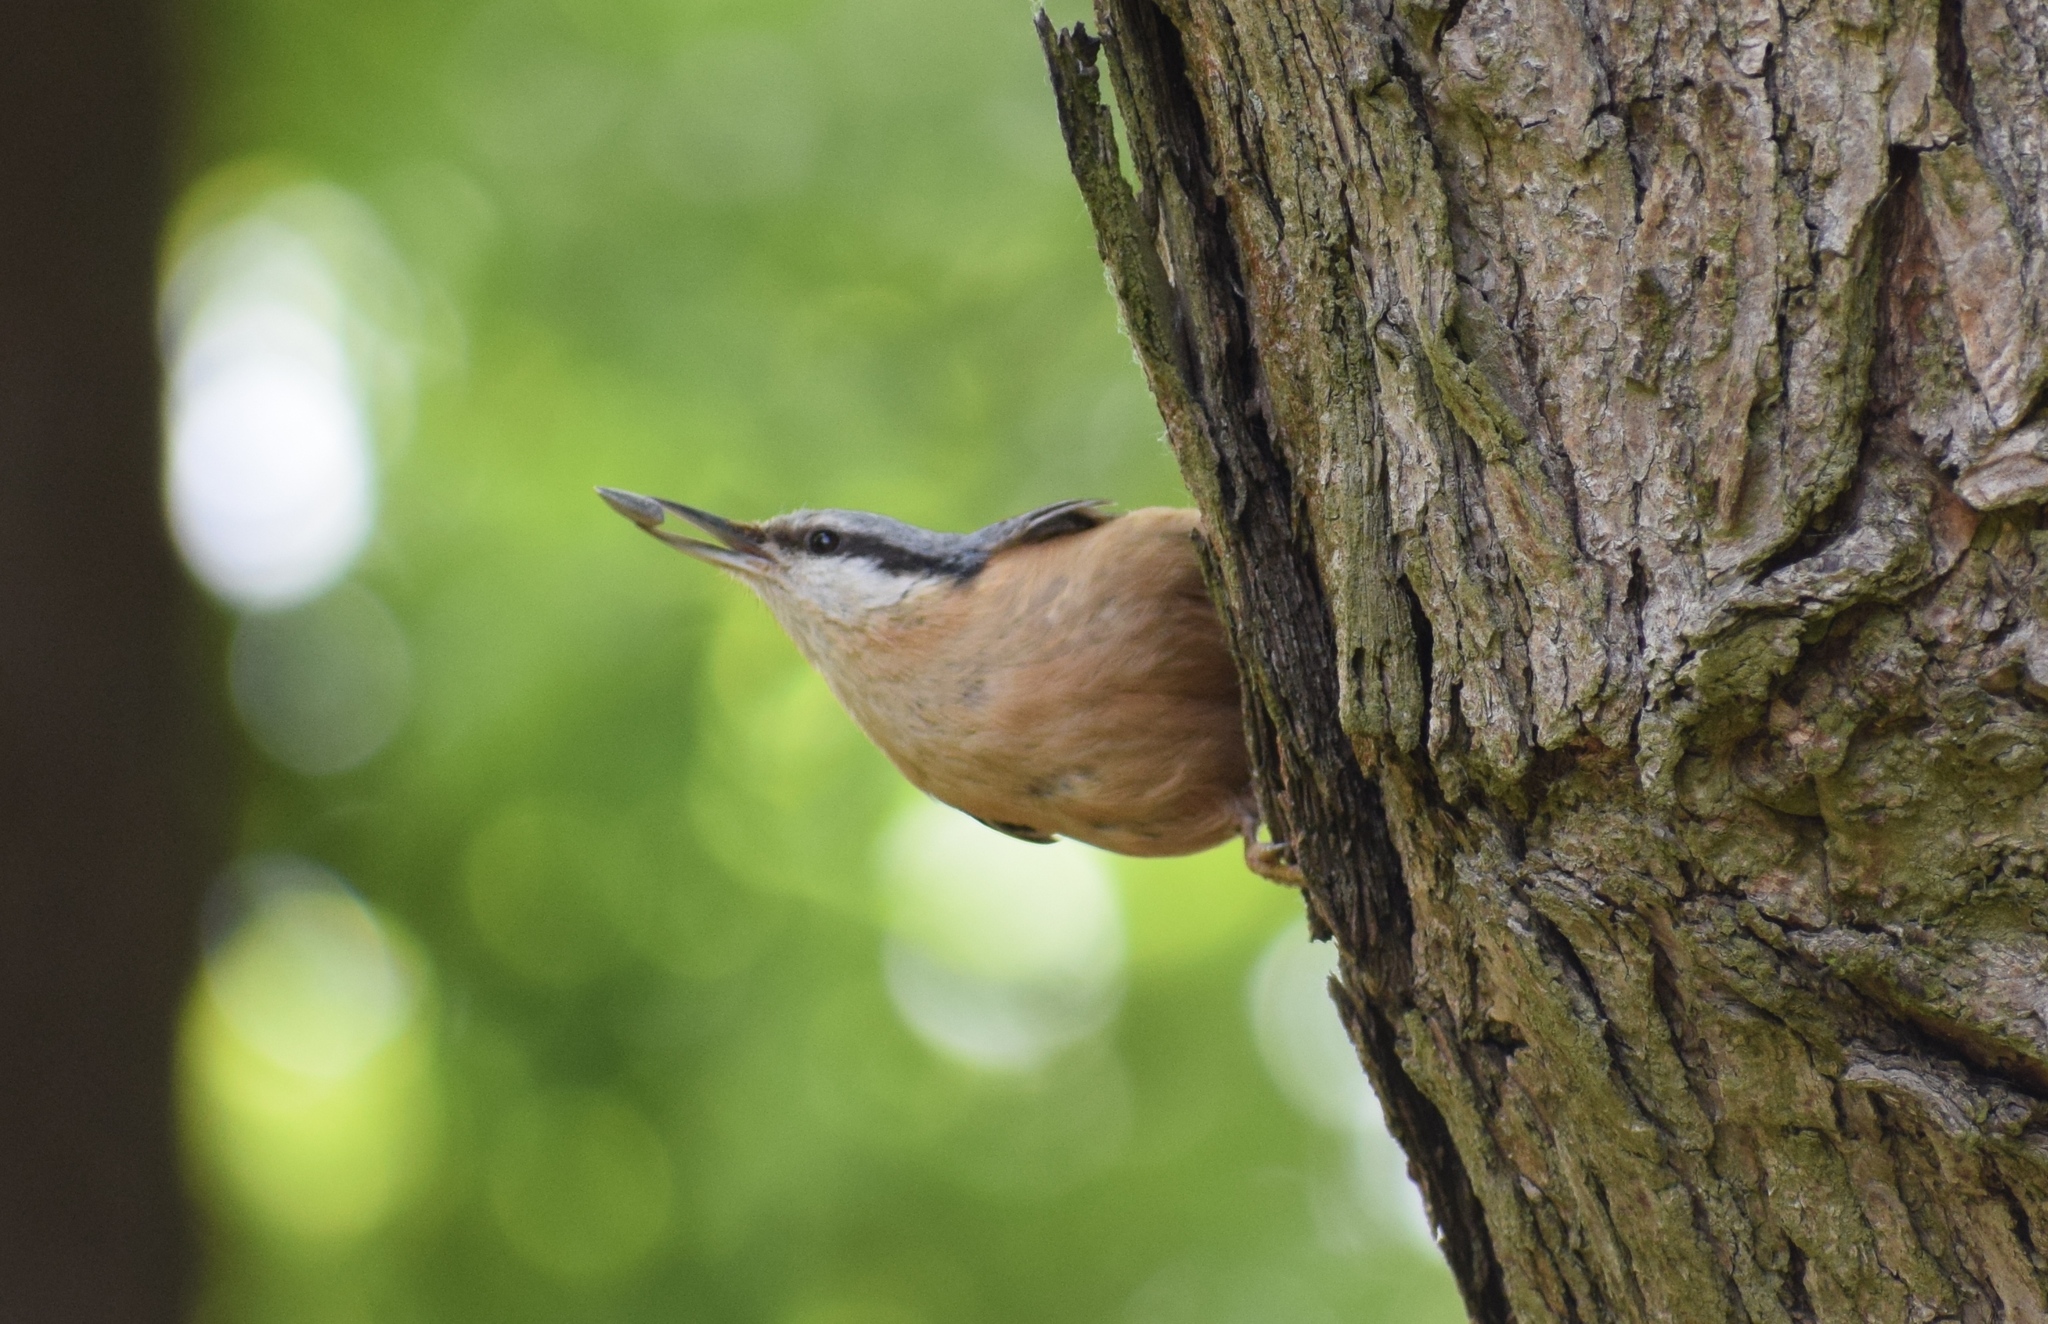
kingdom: Animalia
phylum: Chordata
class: Aves
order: Passeriformes
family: Sittidae
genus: Sitta
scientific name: Sitta europaea
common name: Eurasian nuthatch
